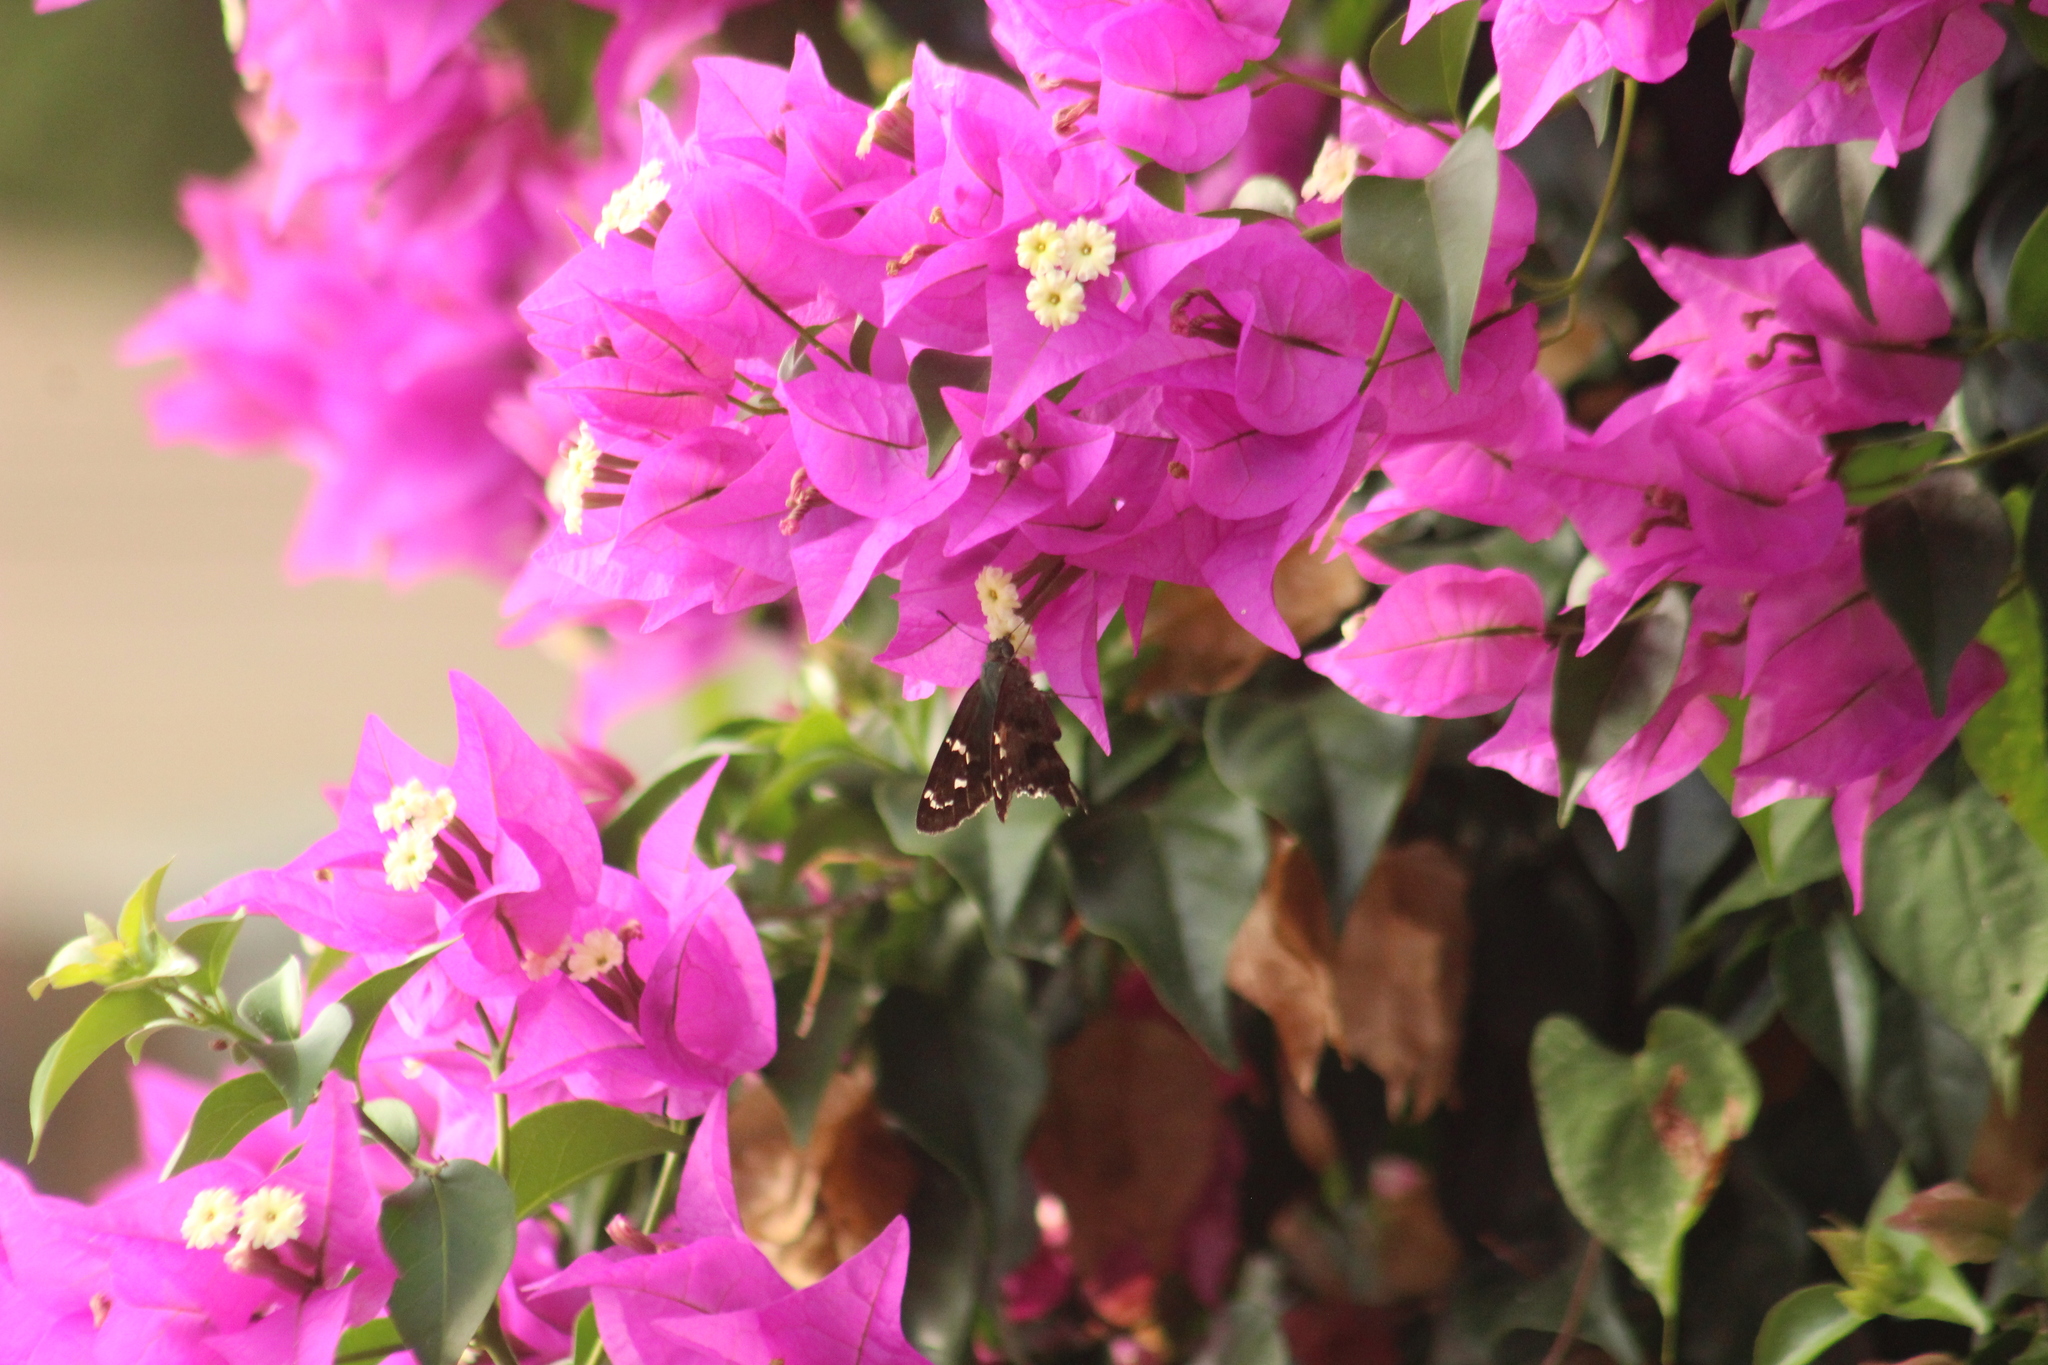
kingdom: Animalia
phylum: Arthropoda
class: Insecta
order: Lepidoptera
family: Hesperiidae
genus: Urbanus
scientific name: Urbanus proteus
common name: Long-tailed skipper
